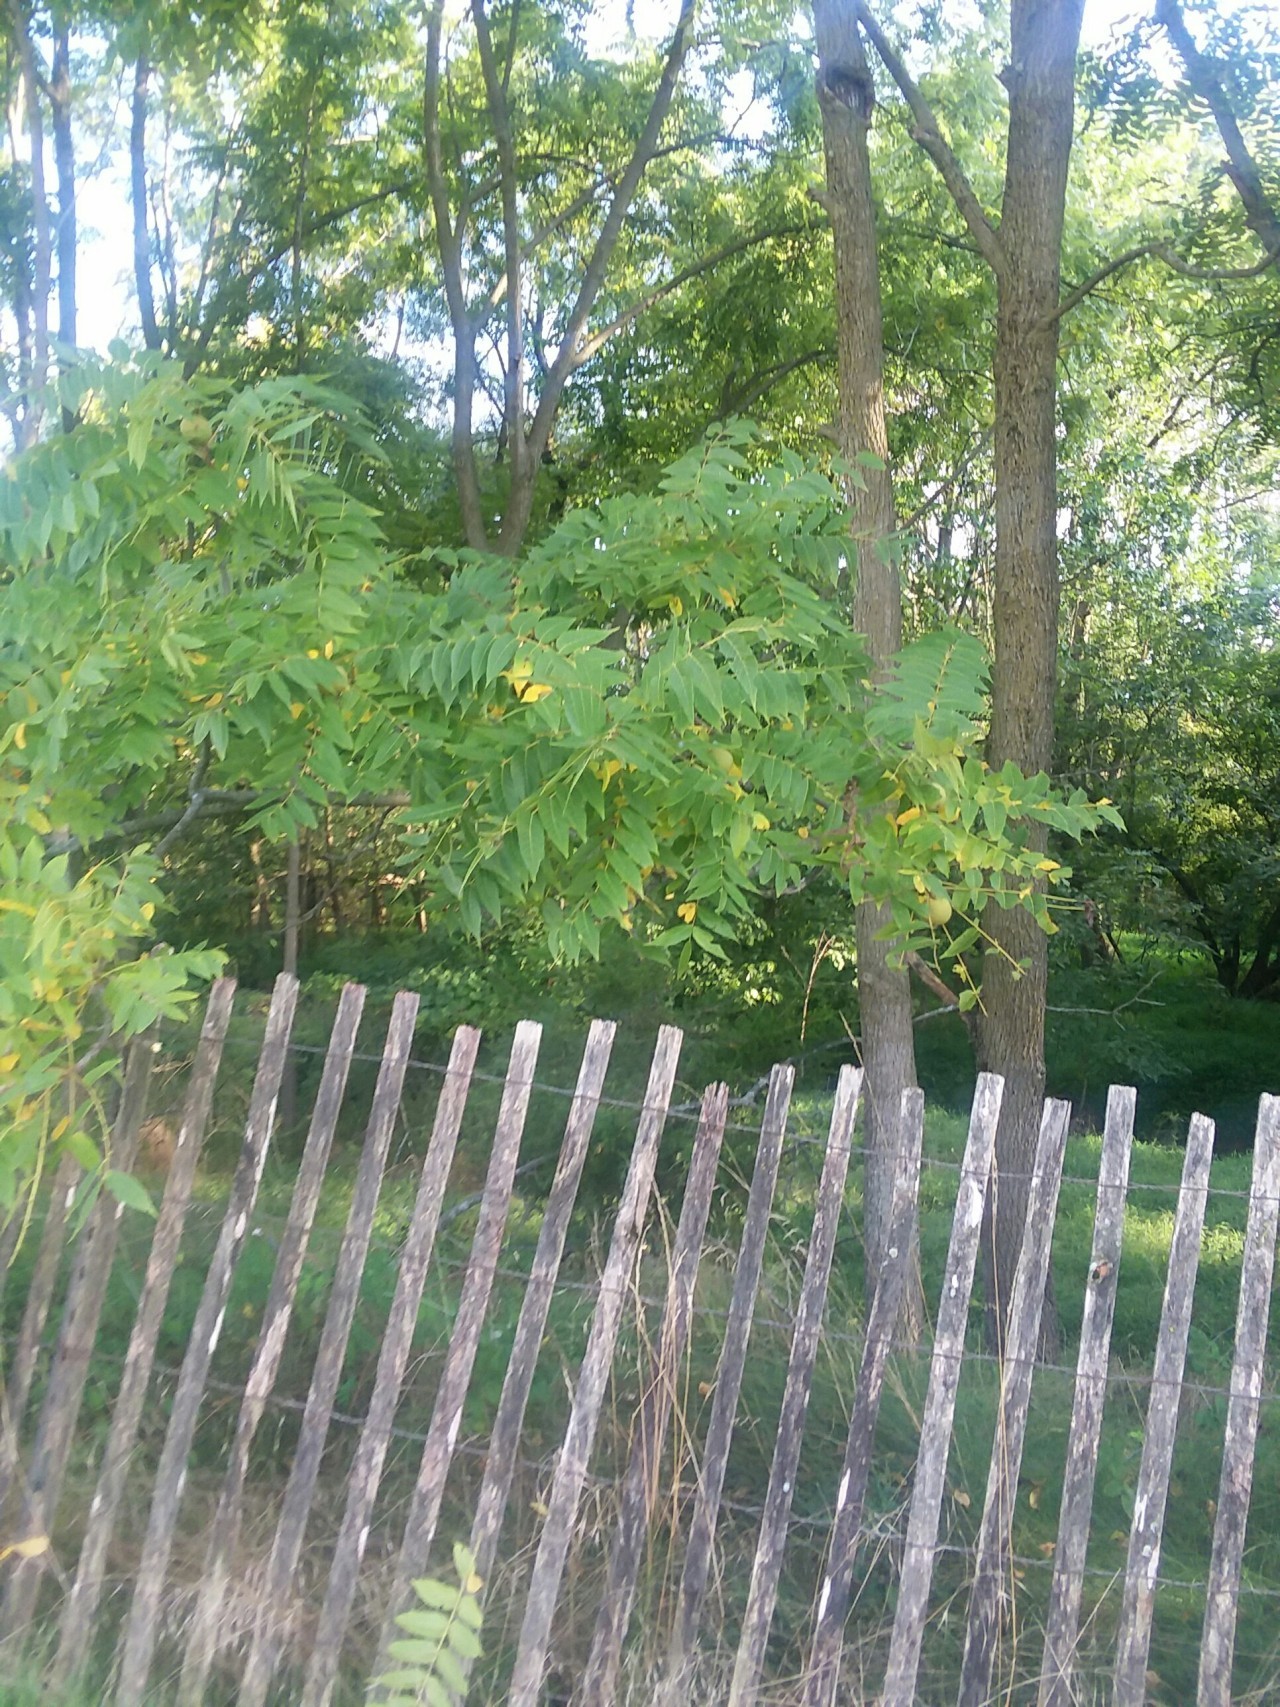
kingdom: Plantae
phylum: Tracheophyta
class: Magnoliopsida
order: Fagales
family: Juglandaceae
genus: Juglans
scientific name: Juglans nigra
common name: Black walnut
